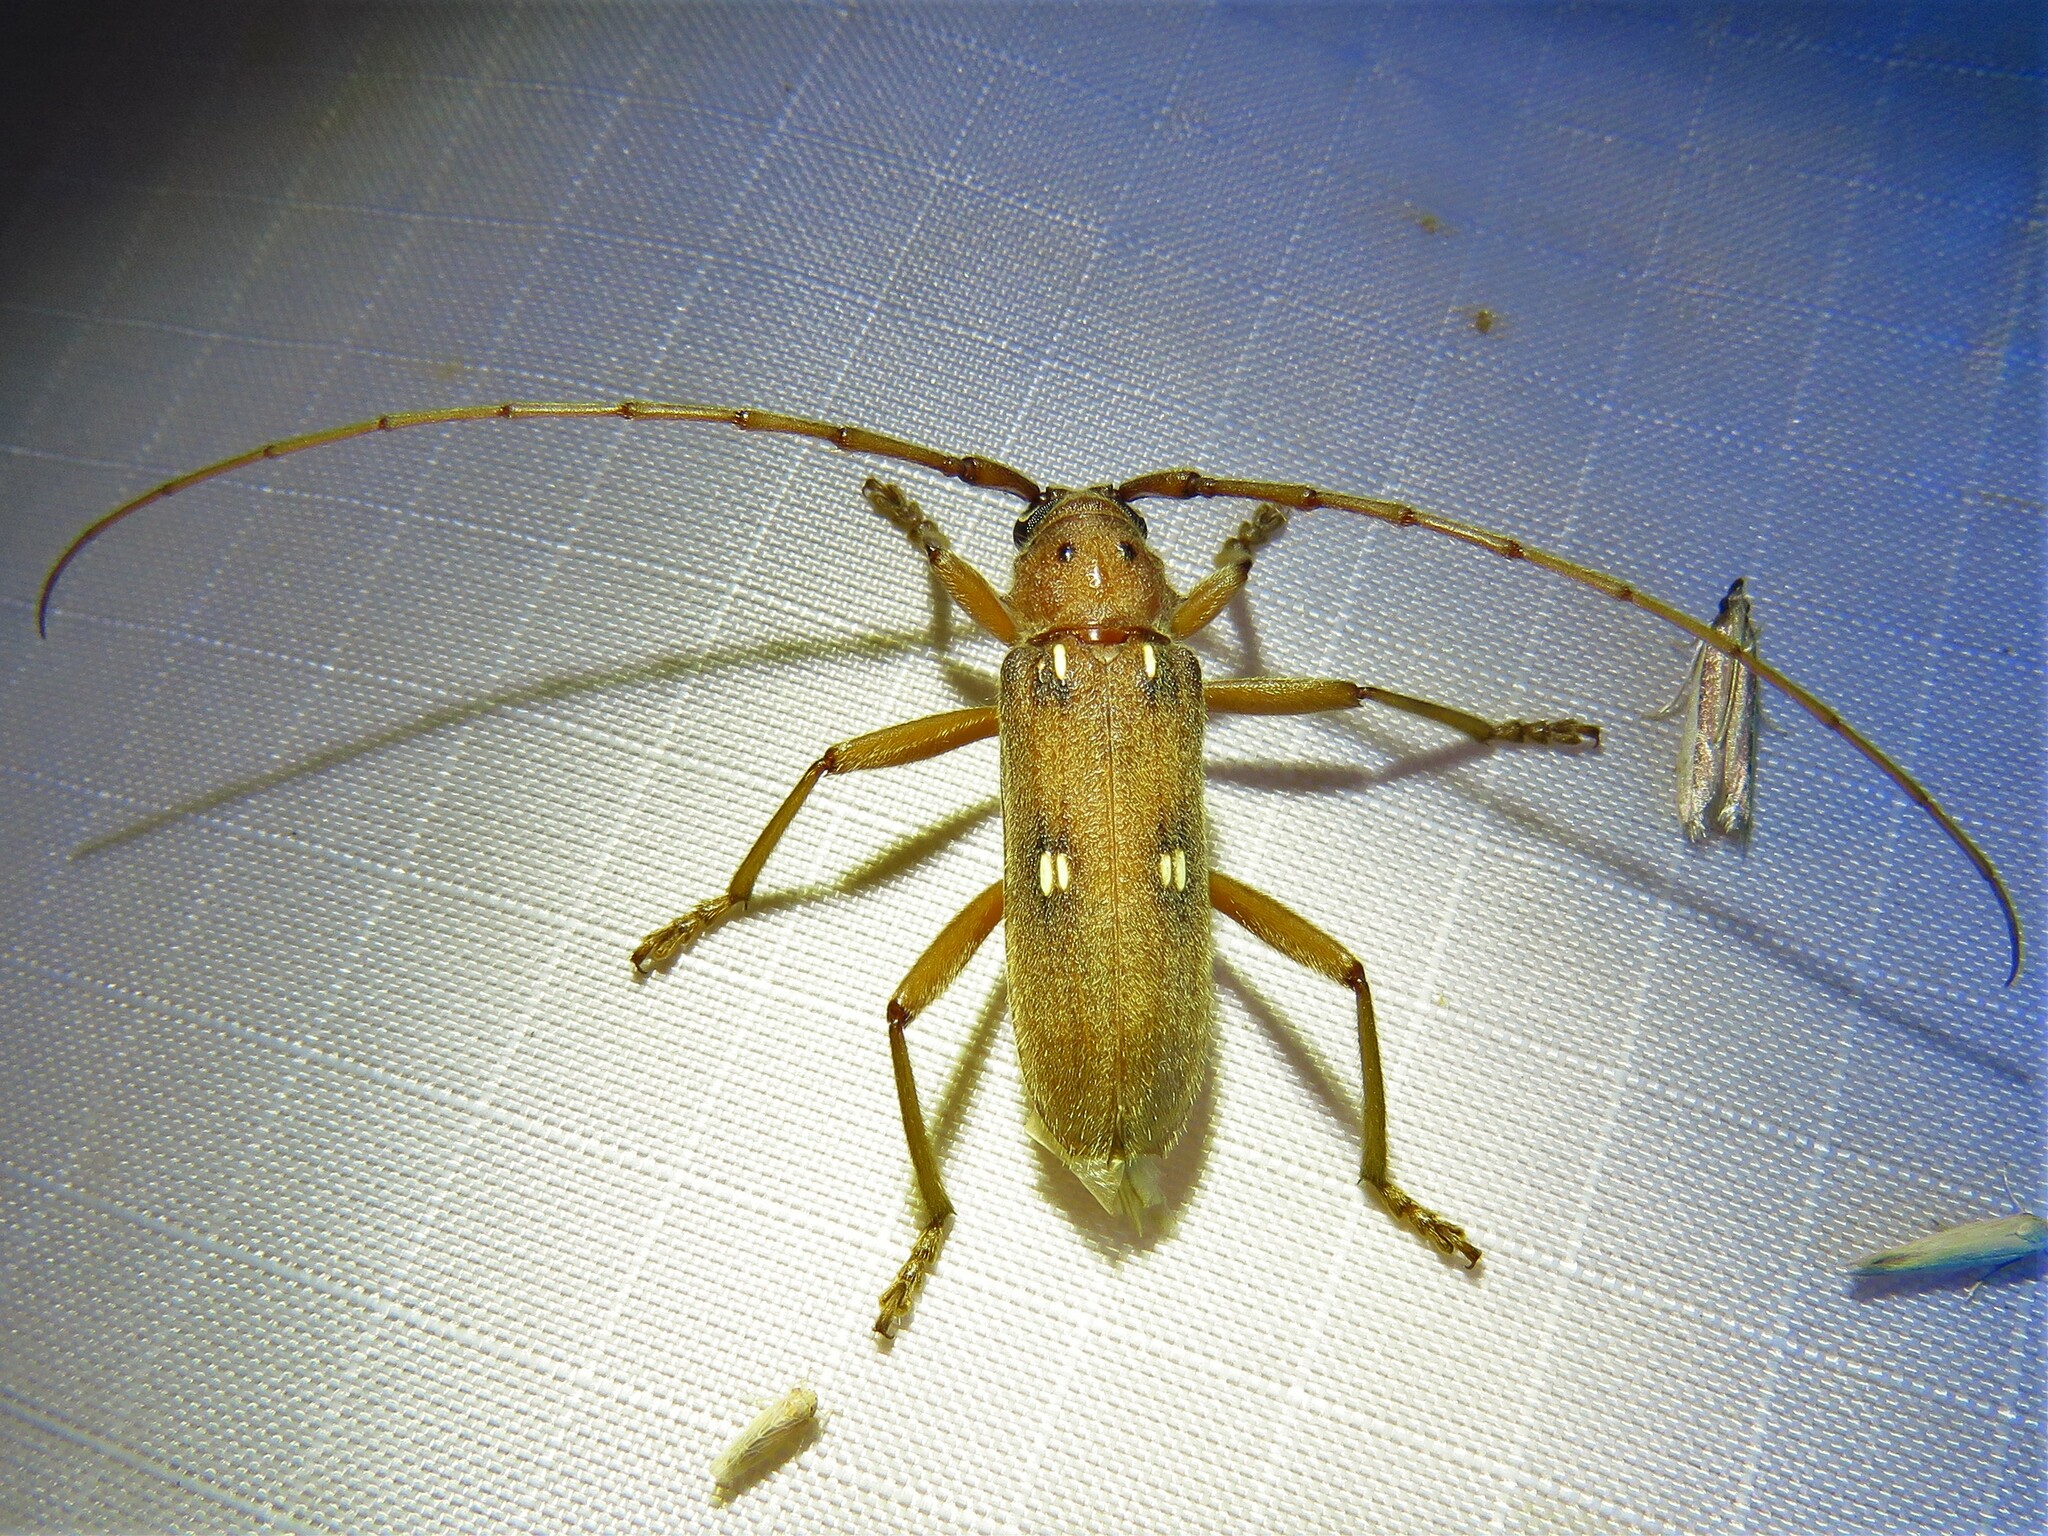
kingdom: Animalia
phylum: Arthropoda
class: Insecta
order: Coleoptera
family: Cerambycidae
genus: Eburia
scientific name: Eburia haldemani
